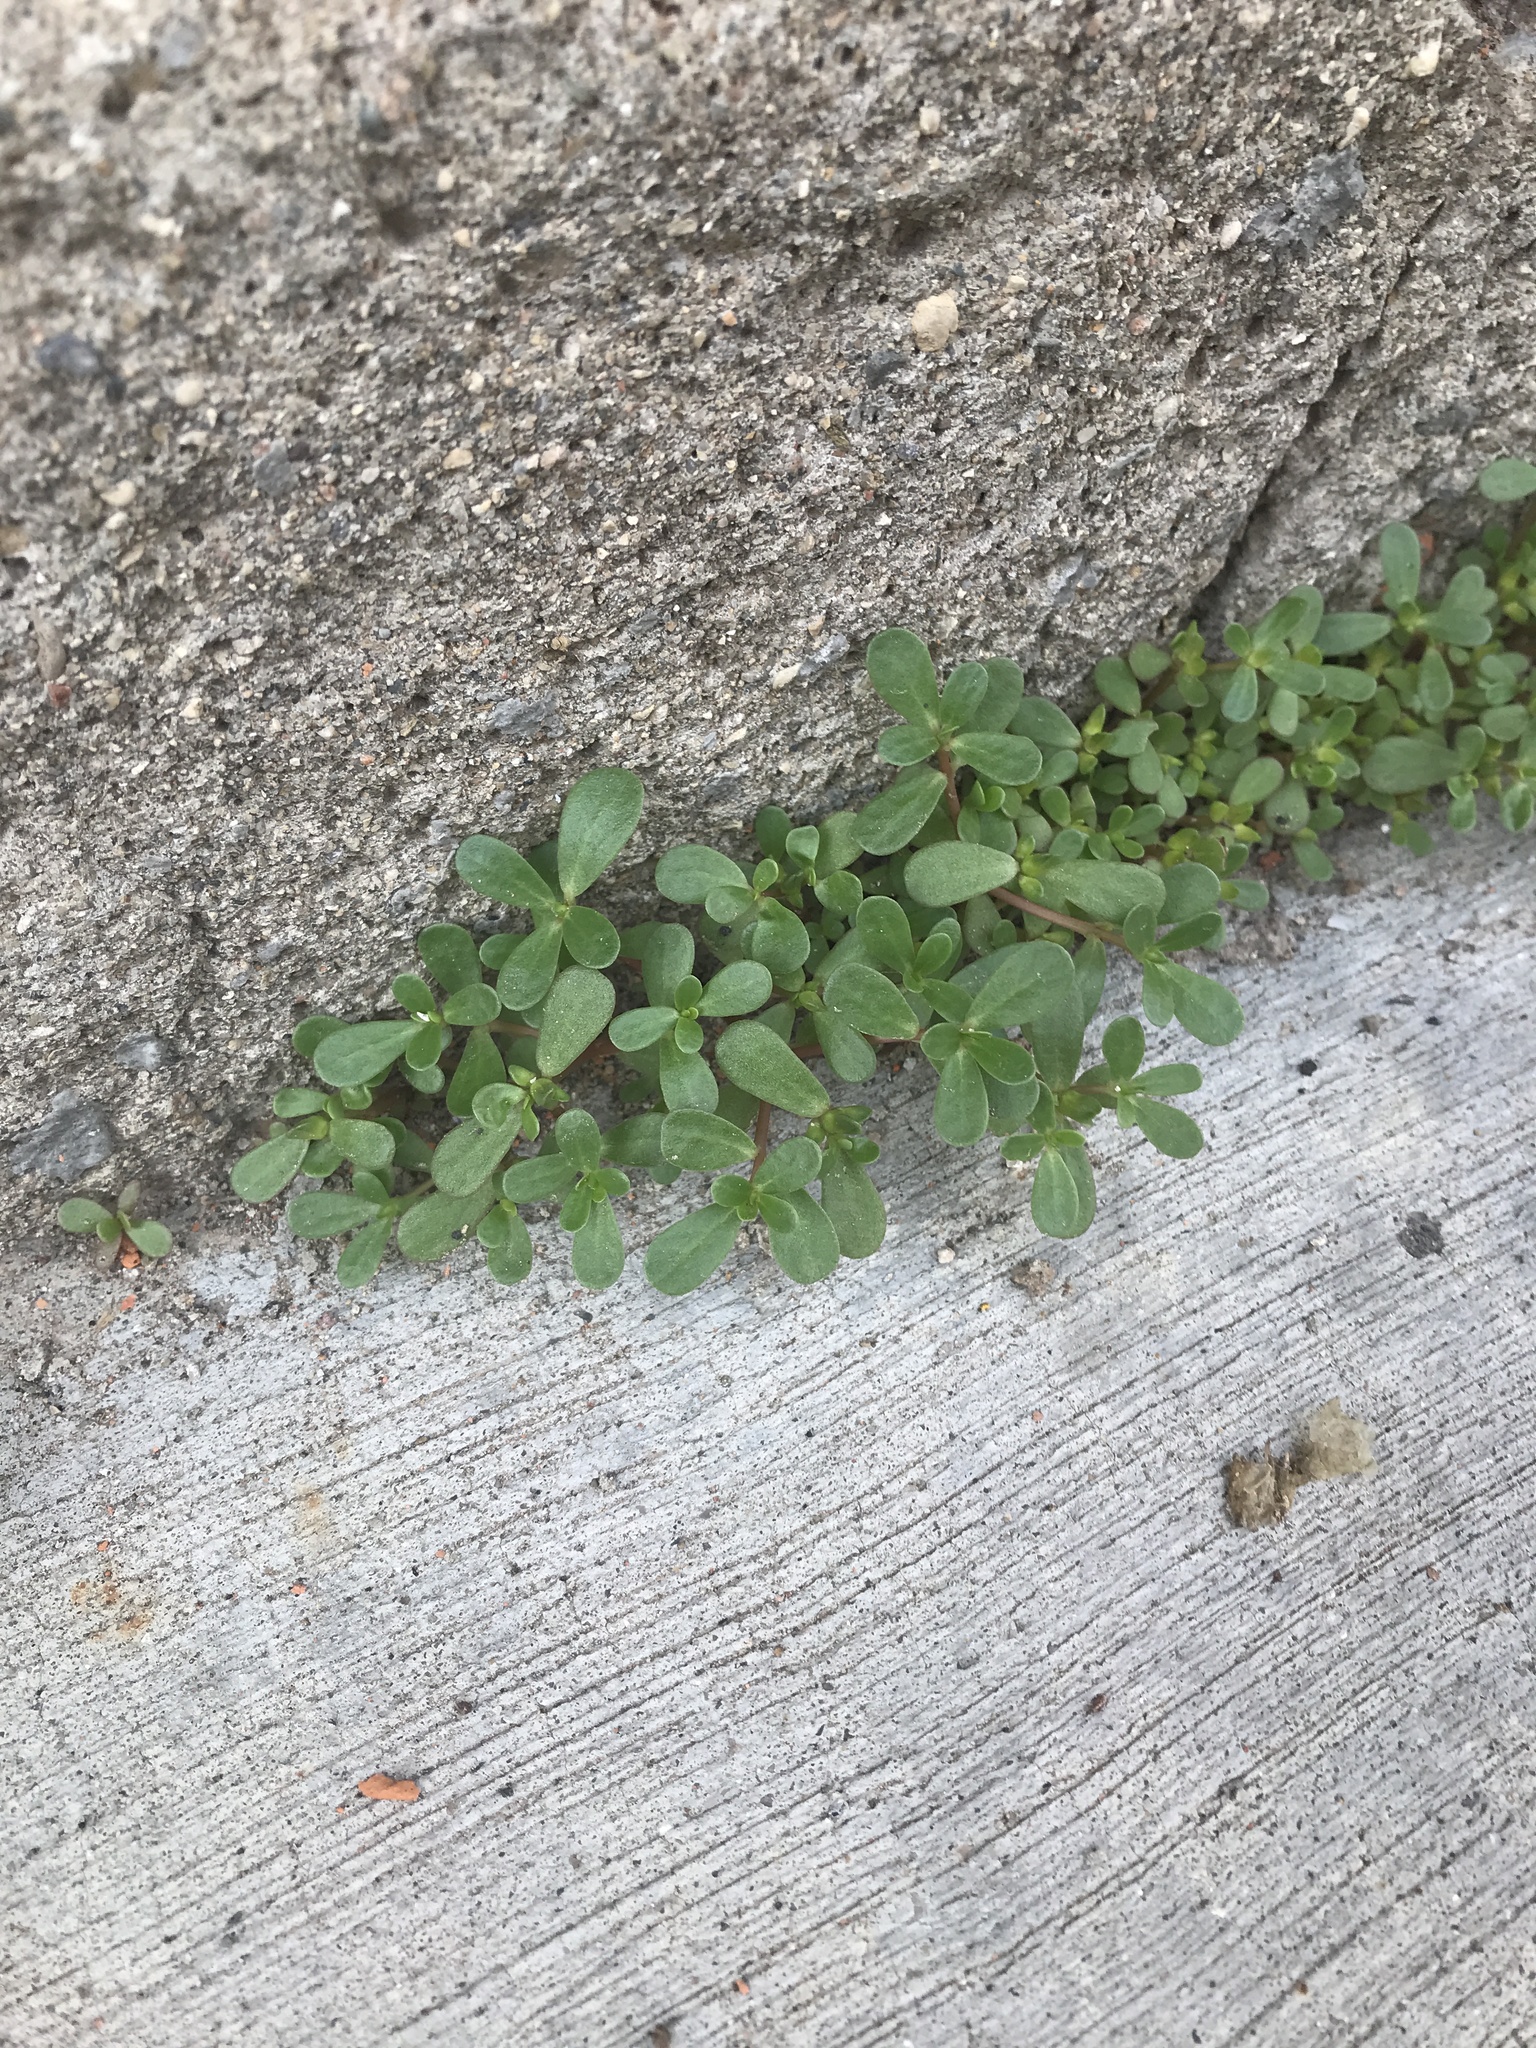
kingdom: Plantae
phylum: Tracheophyta
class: Magnoliopsida
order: Caryophyllales
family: Portulacaceae
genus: Portulaca
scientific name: Portulaca oleracea
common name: Common purslane
